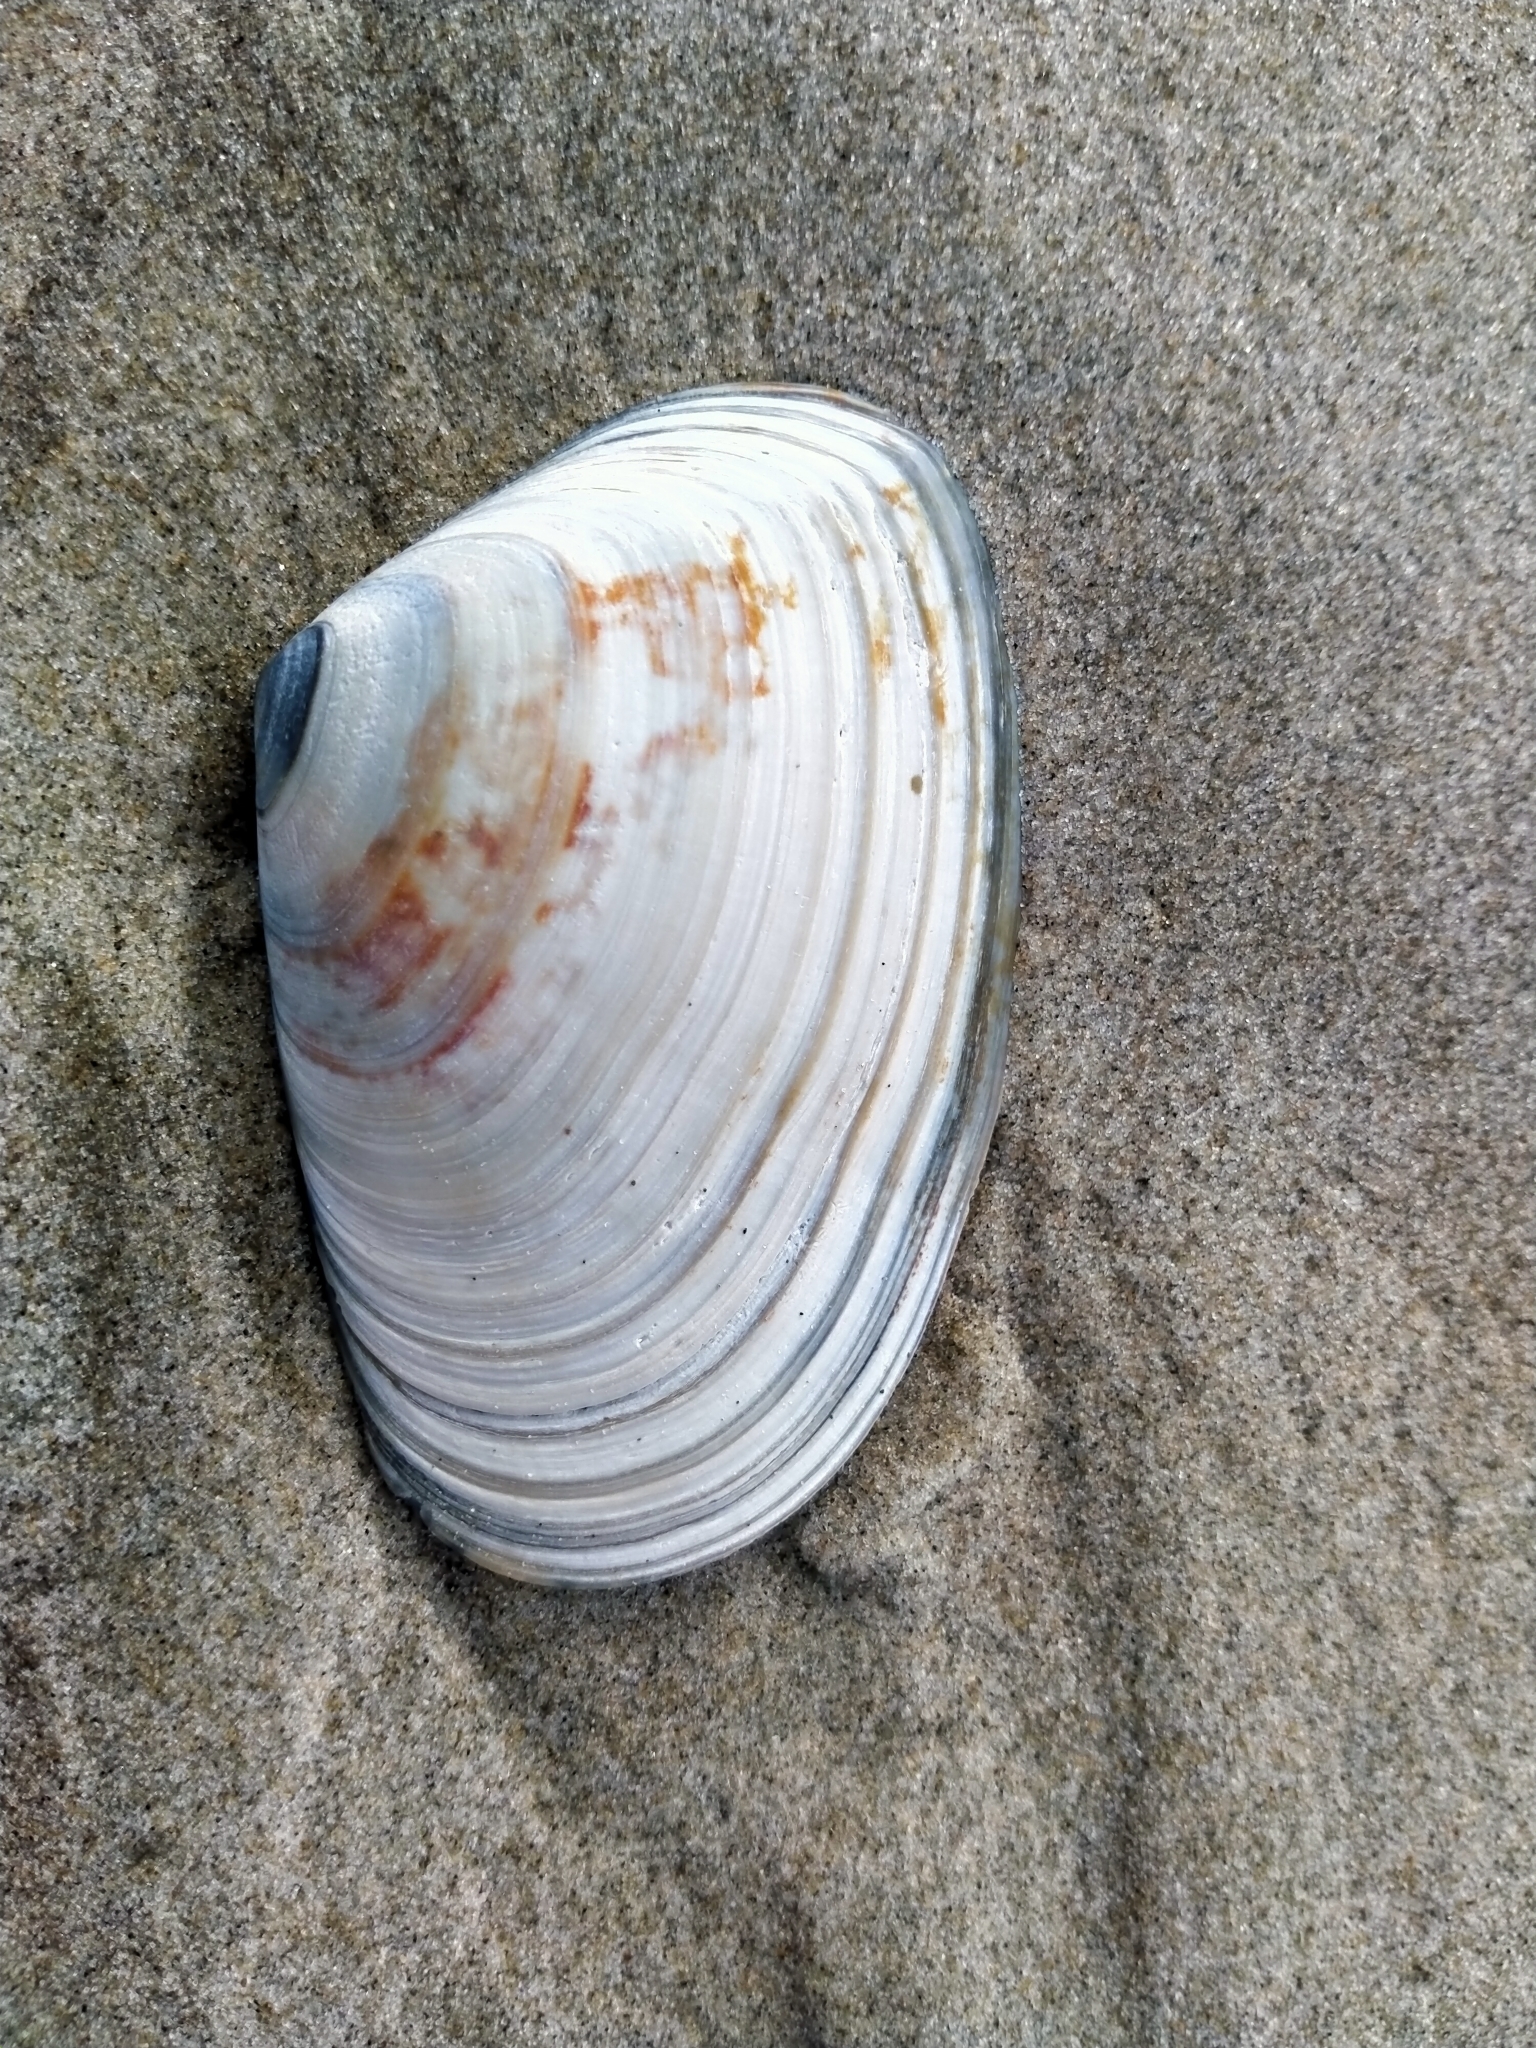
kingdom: Animalia
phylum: Mollusca
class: Bivalvia
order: Venerida
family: Mesodesmatidae
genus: Paphies
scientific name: Paphies donacina
